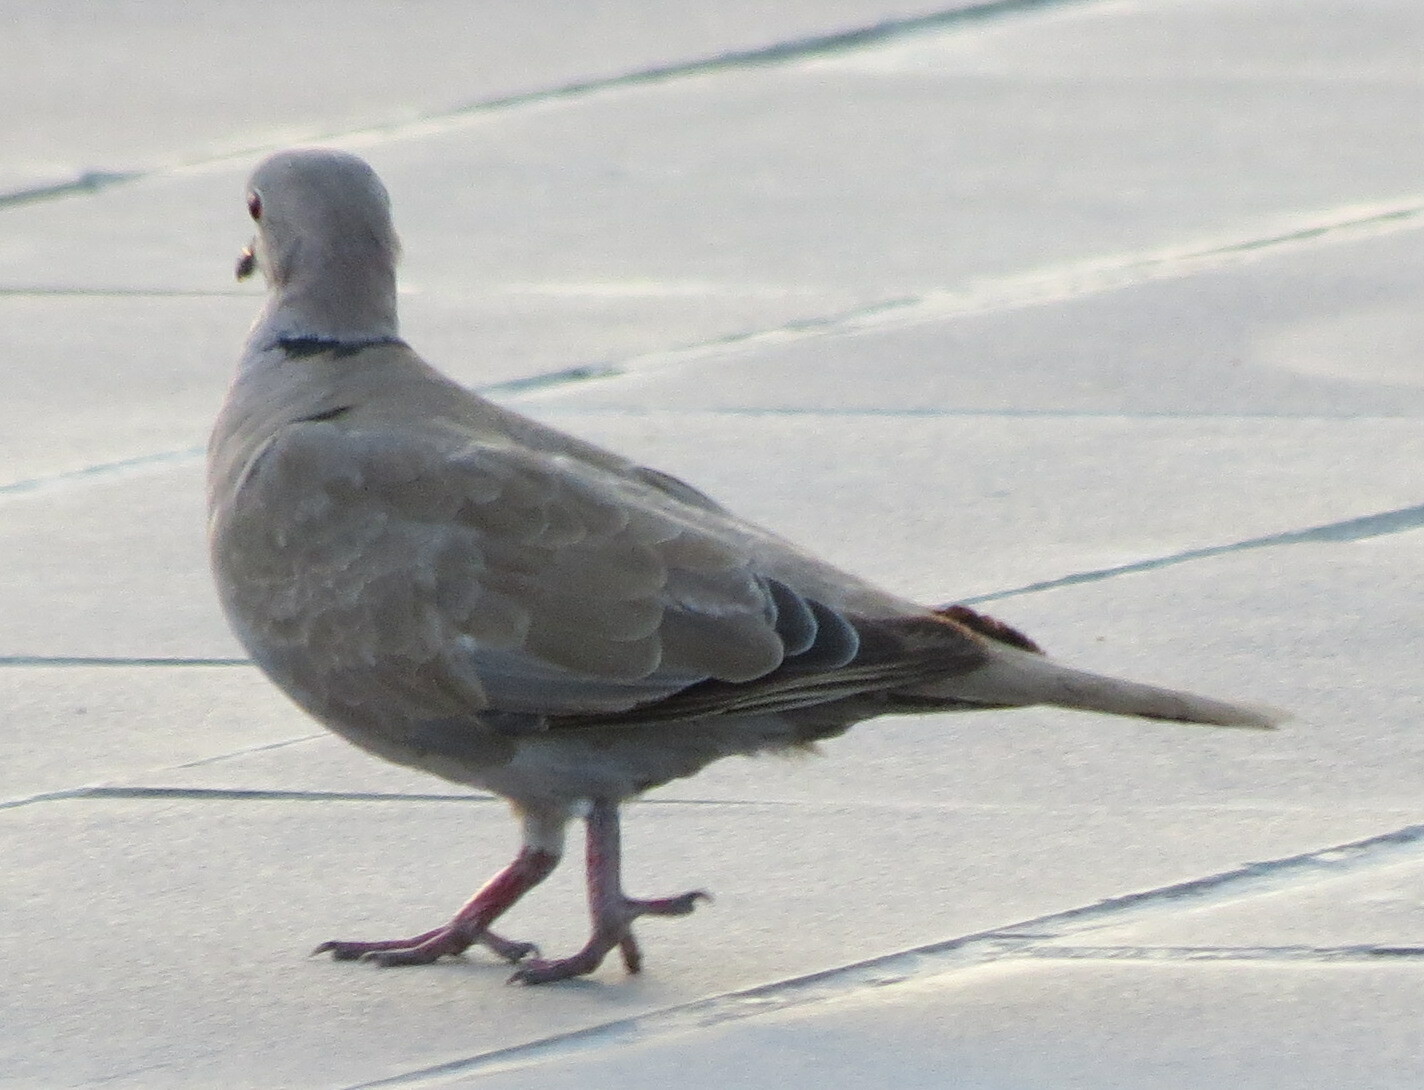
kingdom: Animalia
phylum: Chordata
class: Aves
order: Columbiformes
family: Columbidae
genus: Streptopelia
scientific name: Streptopelia decaocto
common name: Eurasian collared dove
